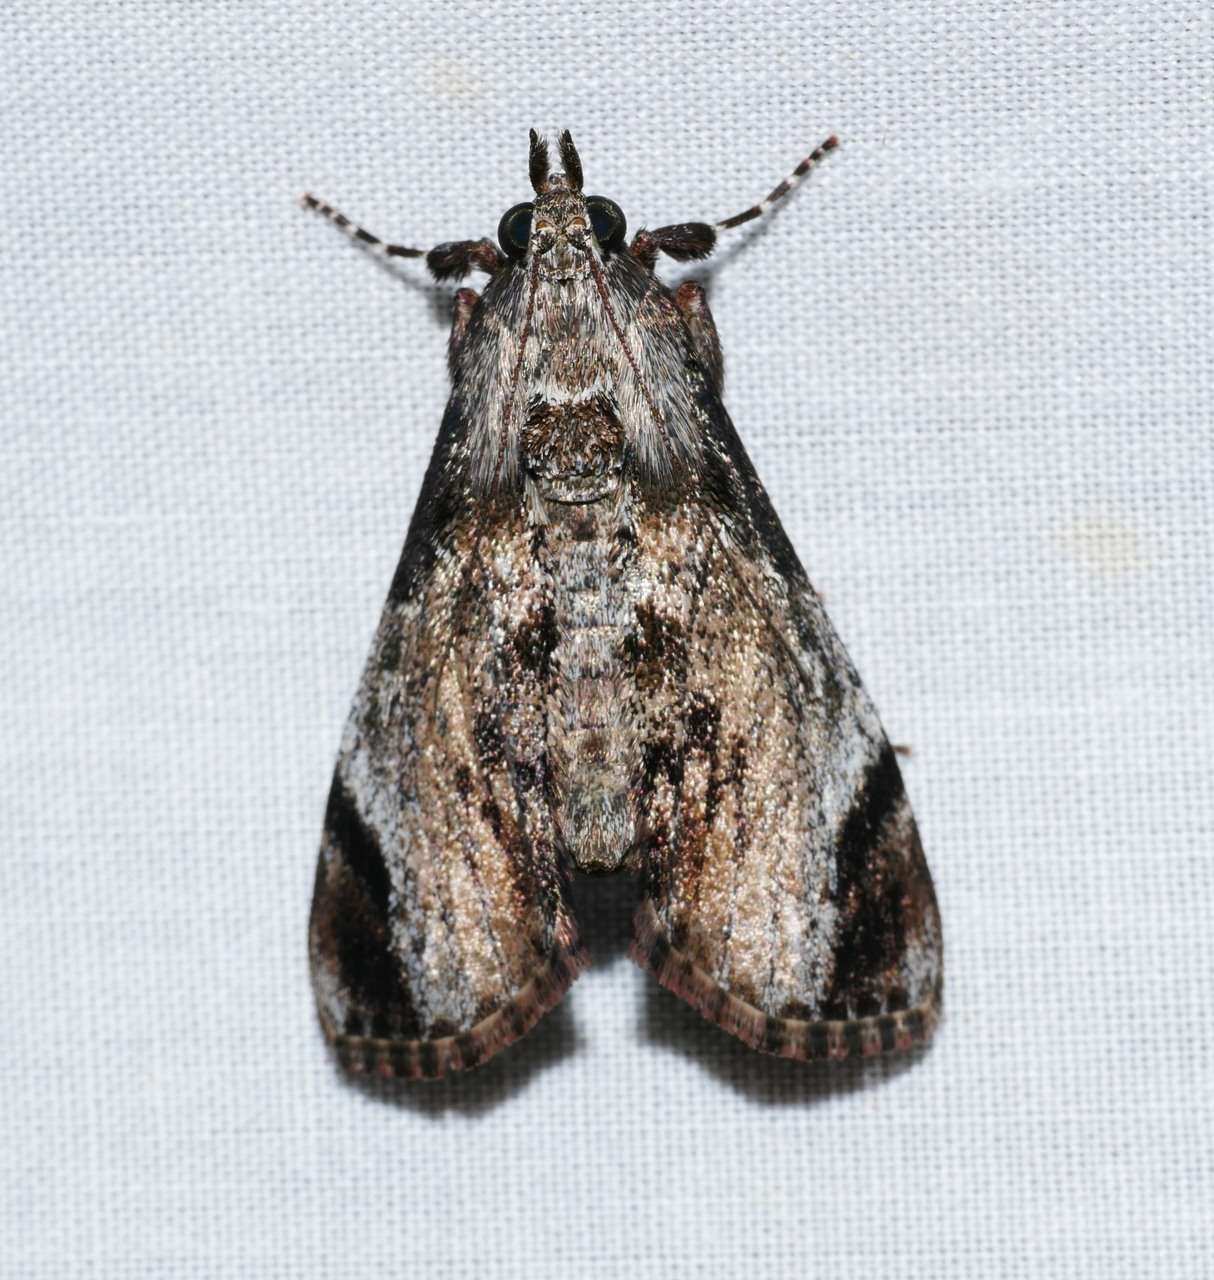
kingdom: Animalia
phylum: Arthropoda
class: Insecta
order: Lepidoptera
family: Pyralidae
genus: Salma
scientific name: Salma pyrastis
